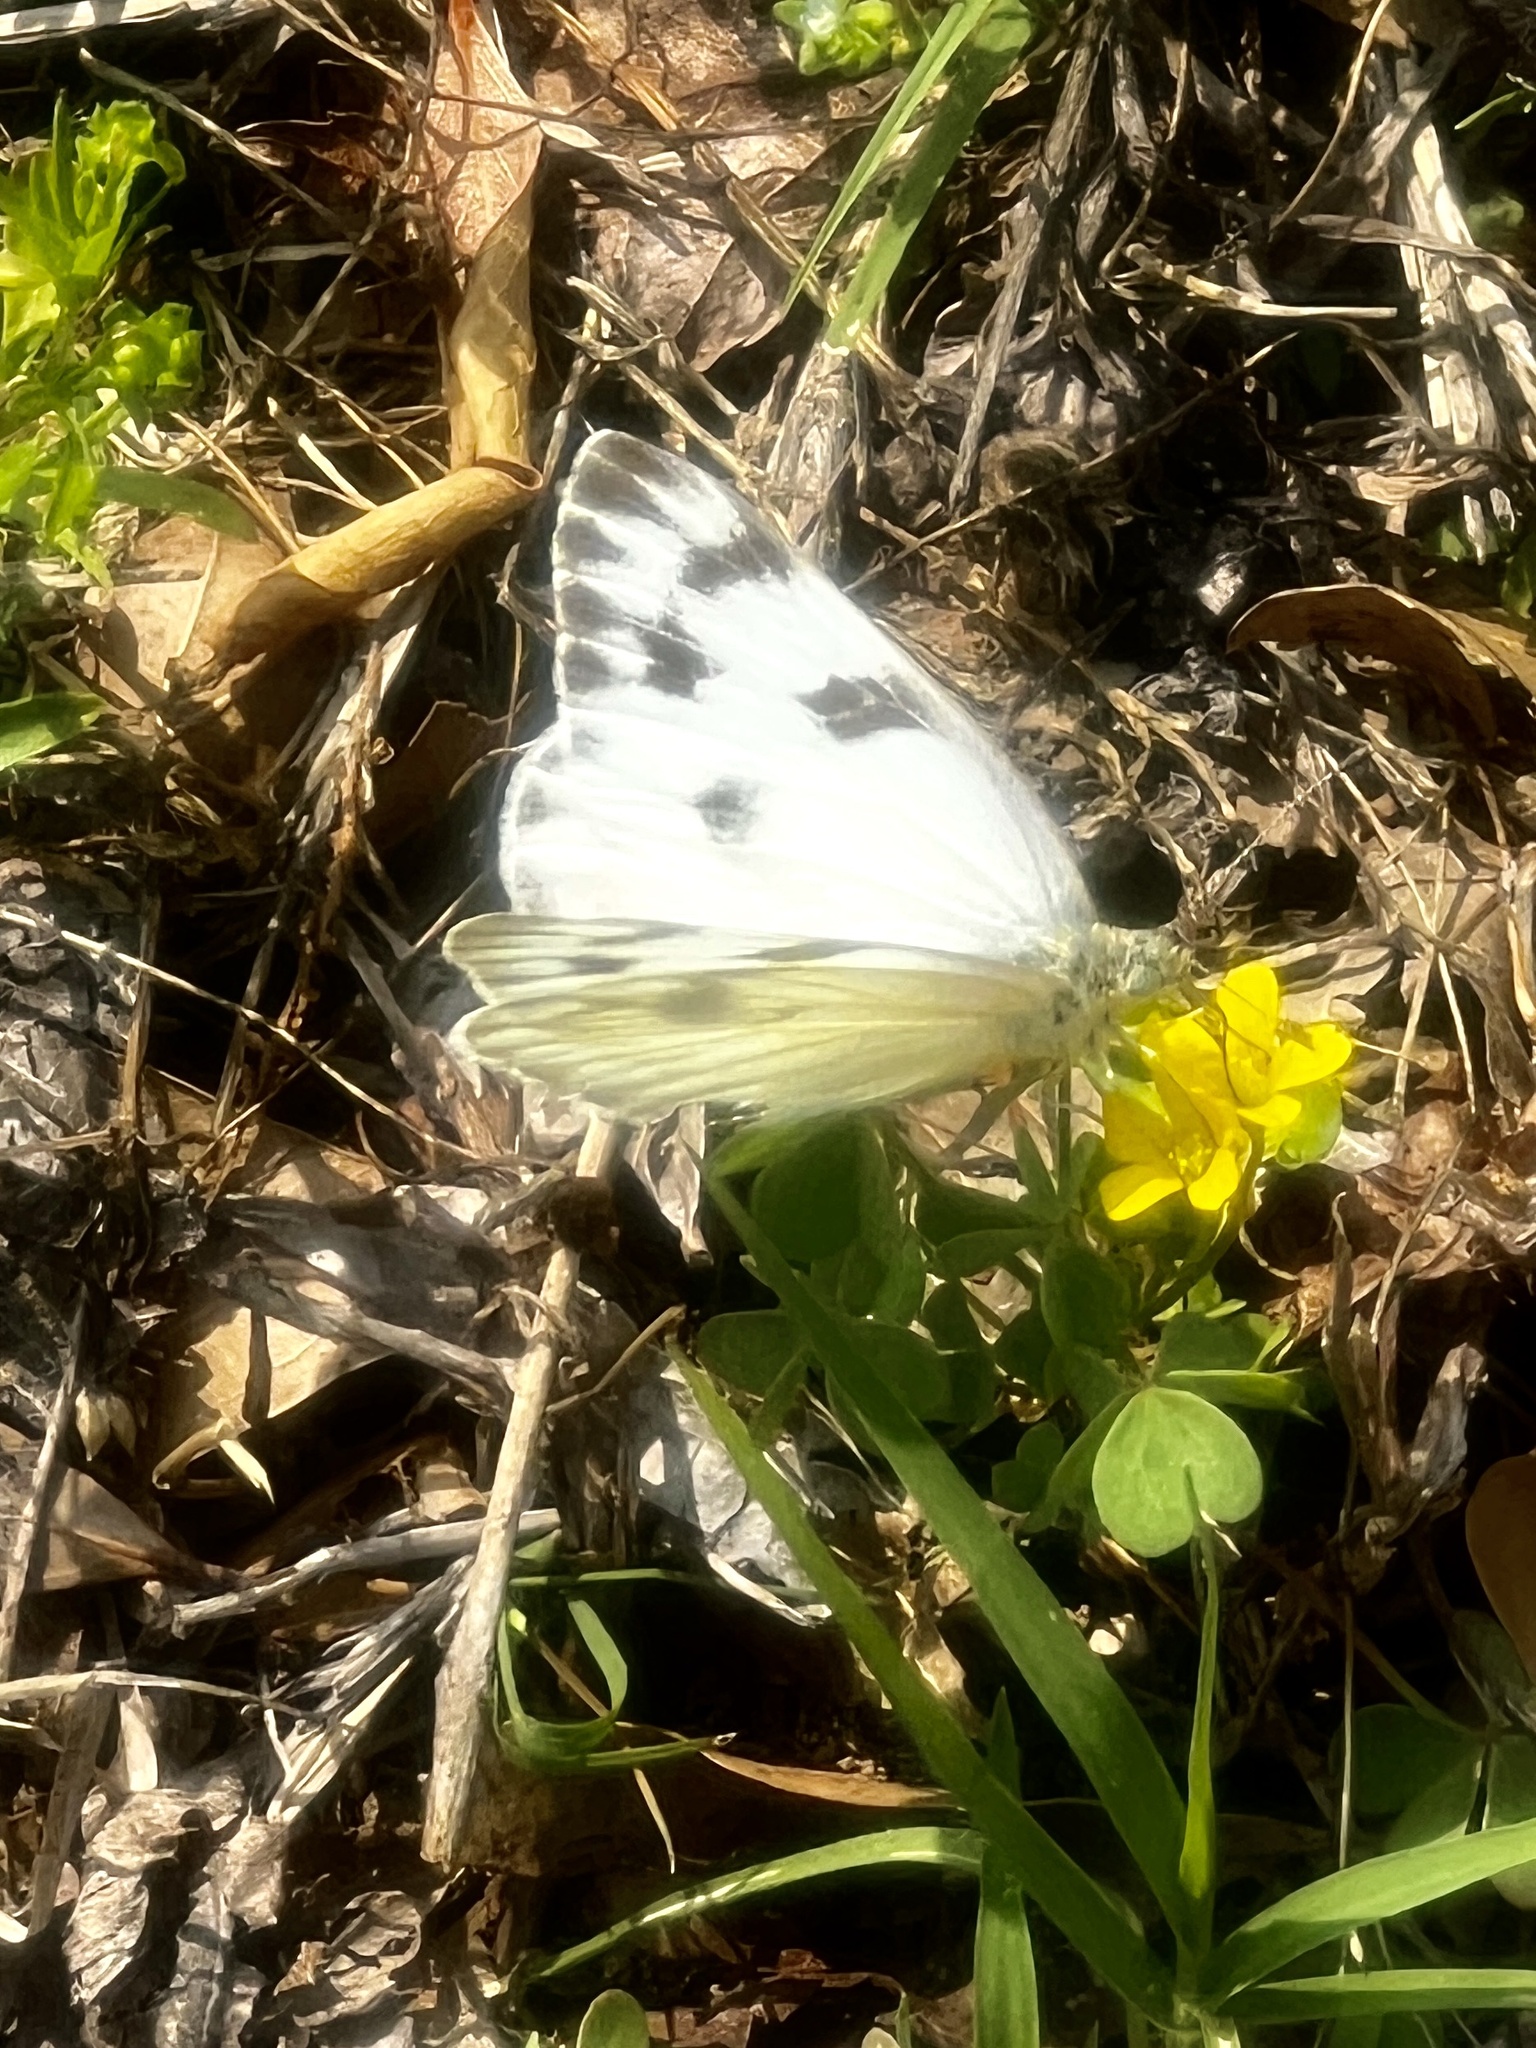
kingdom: Animalia
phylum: Arthropoda
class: Insecta
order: Lepidoptera
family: Pieridae
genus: Pontia
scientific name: Pontia protodice
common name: Checkered white
